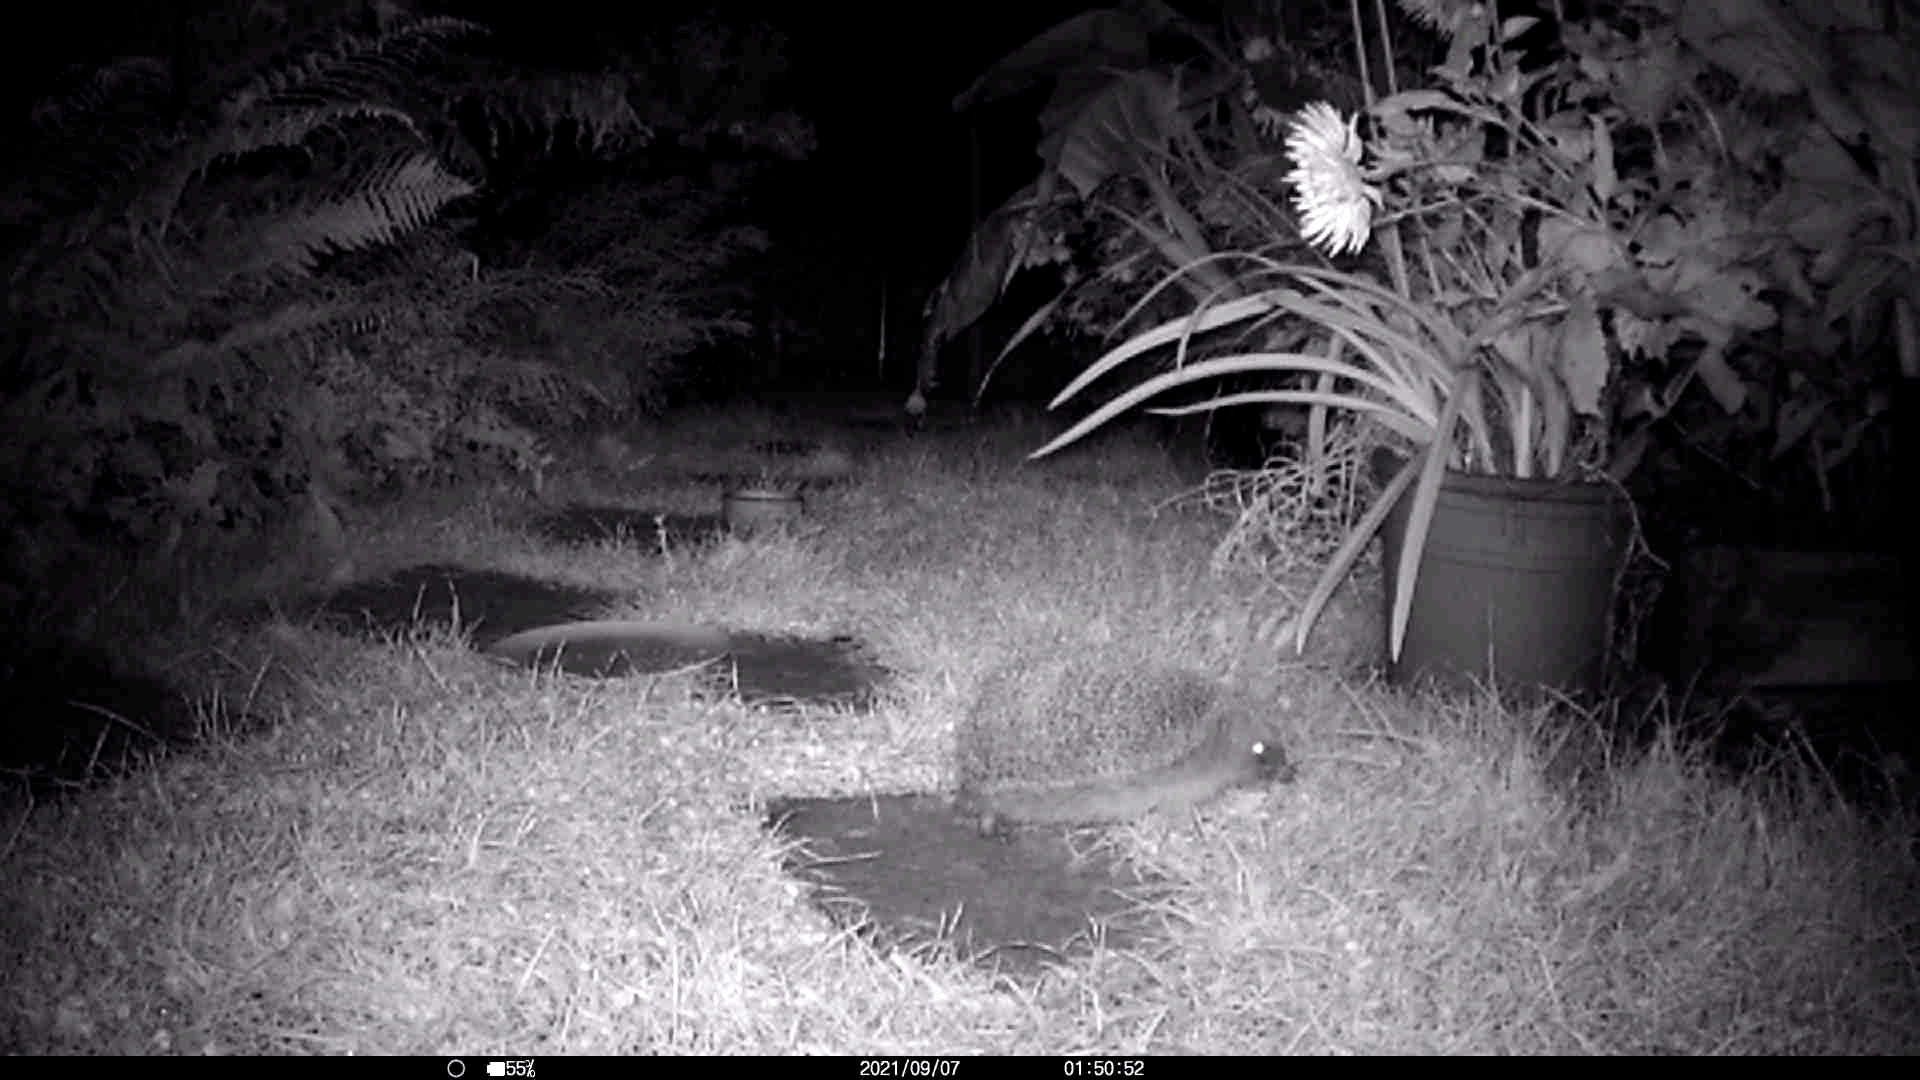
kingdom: Animalia
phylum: Chordata
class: Mammalia
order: Erinaceomorpha
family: Erinaceidae
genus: Erinaceus
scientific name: Erinaceus europaeus
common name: West european hedgehog
